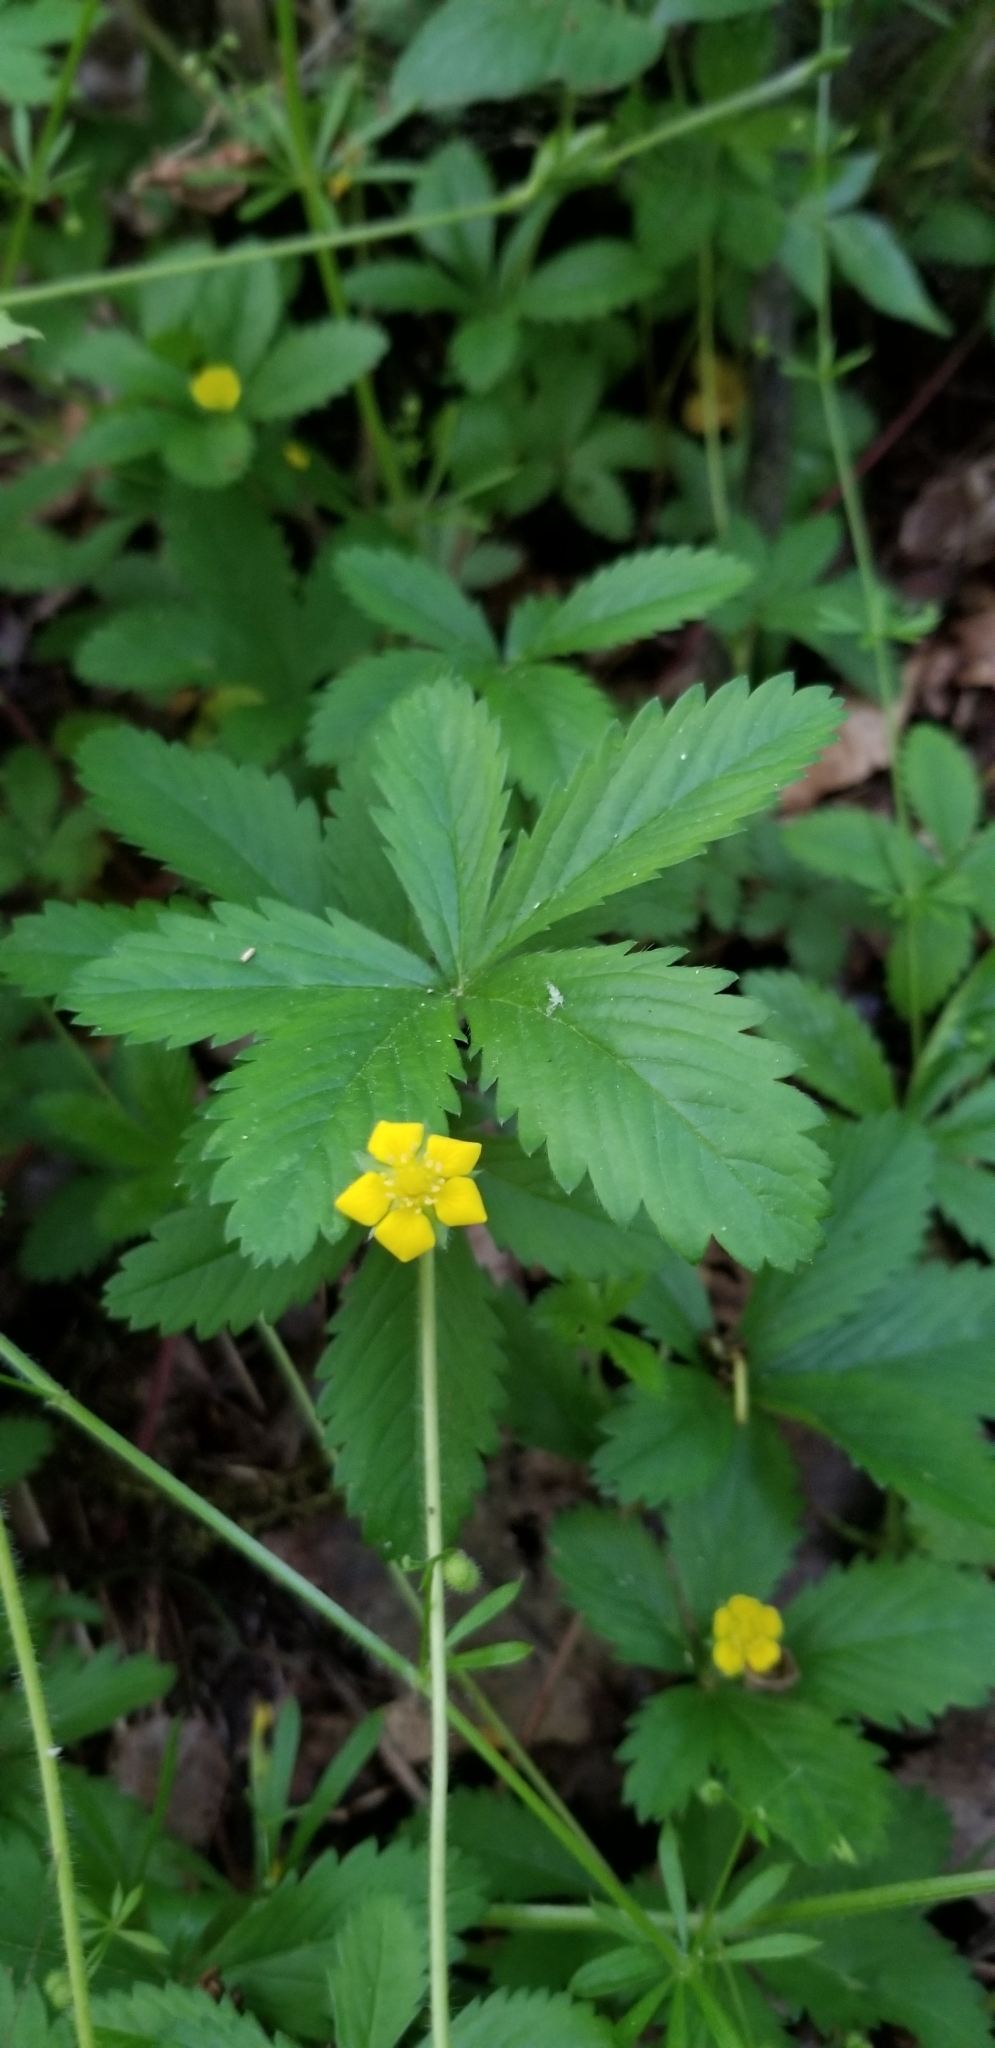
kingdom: Plantae
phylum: Tracheophyta
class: Magnoliopsida
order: Rosales
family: Rosaceae
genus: Potentilla
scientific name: Potentilla simplex
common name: Old field cinquefoil
